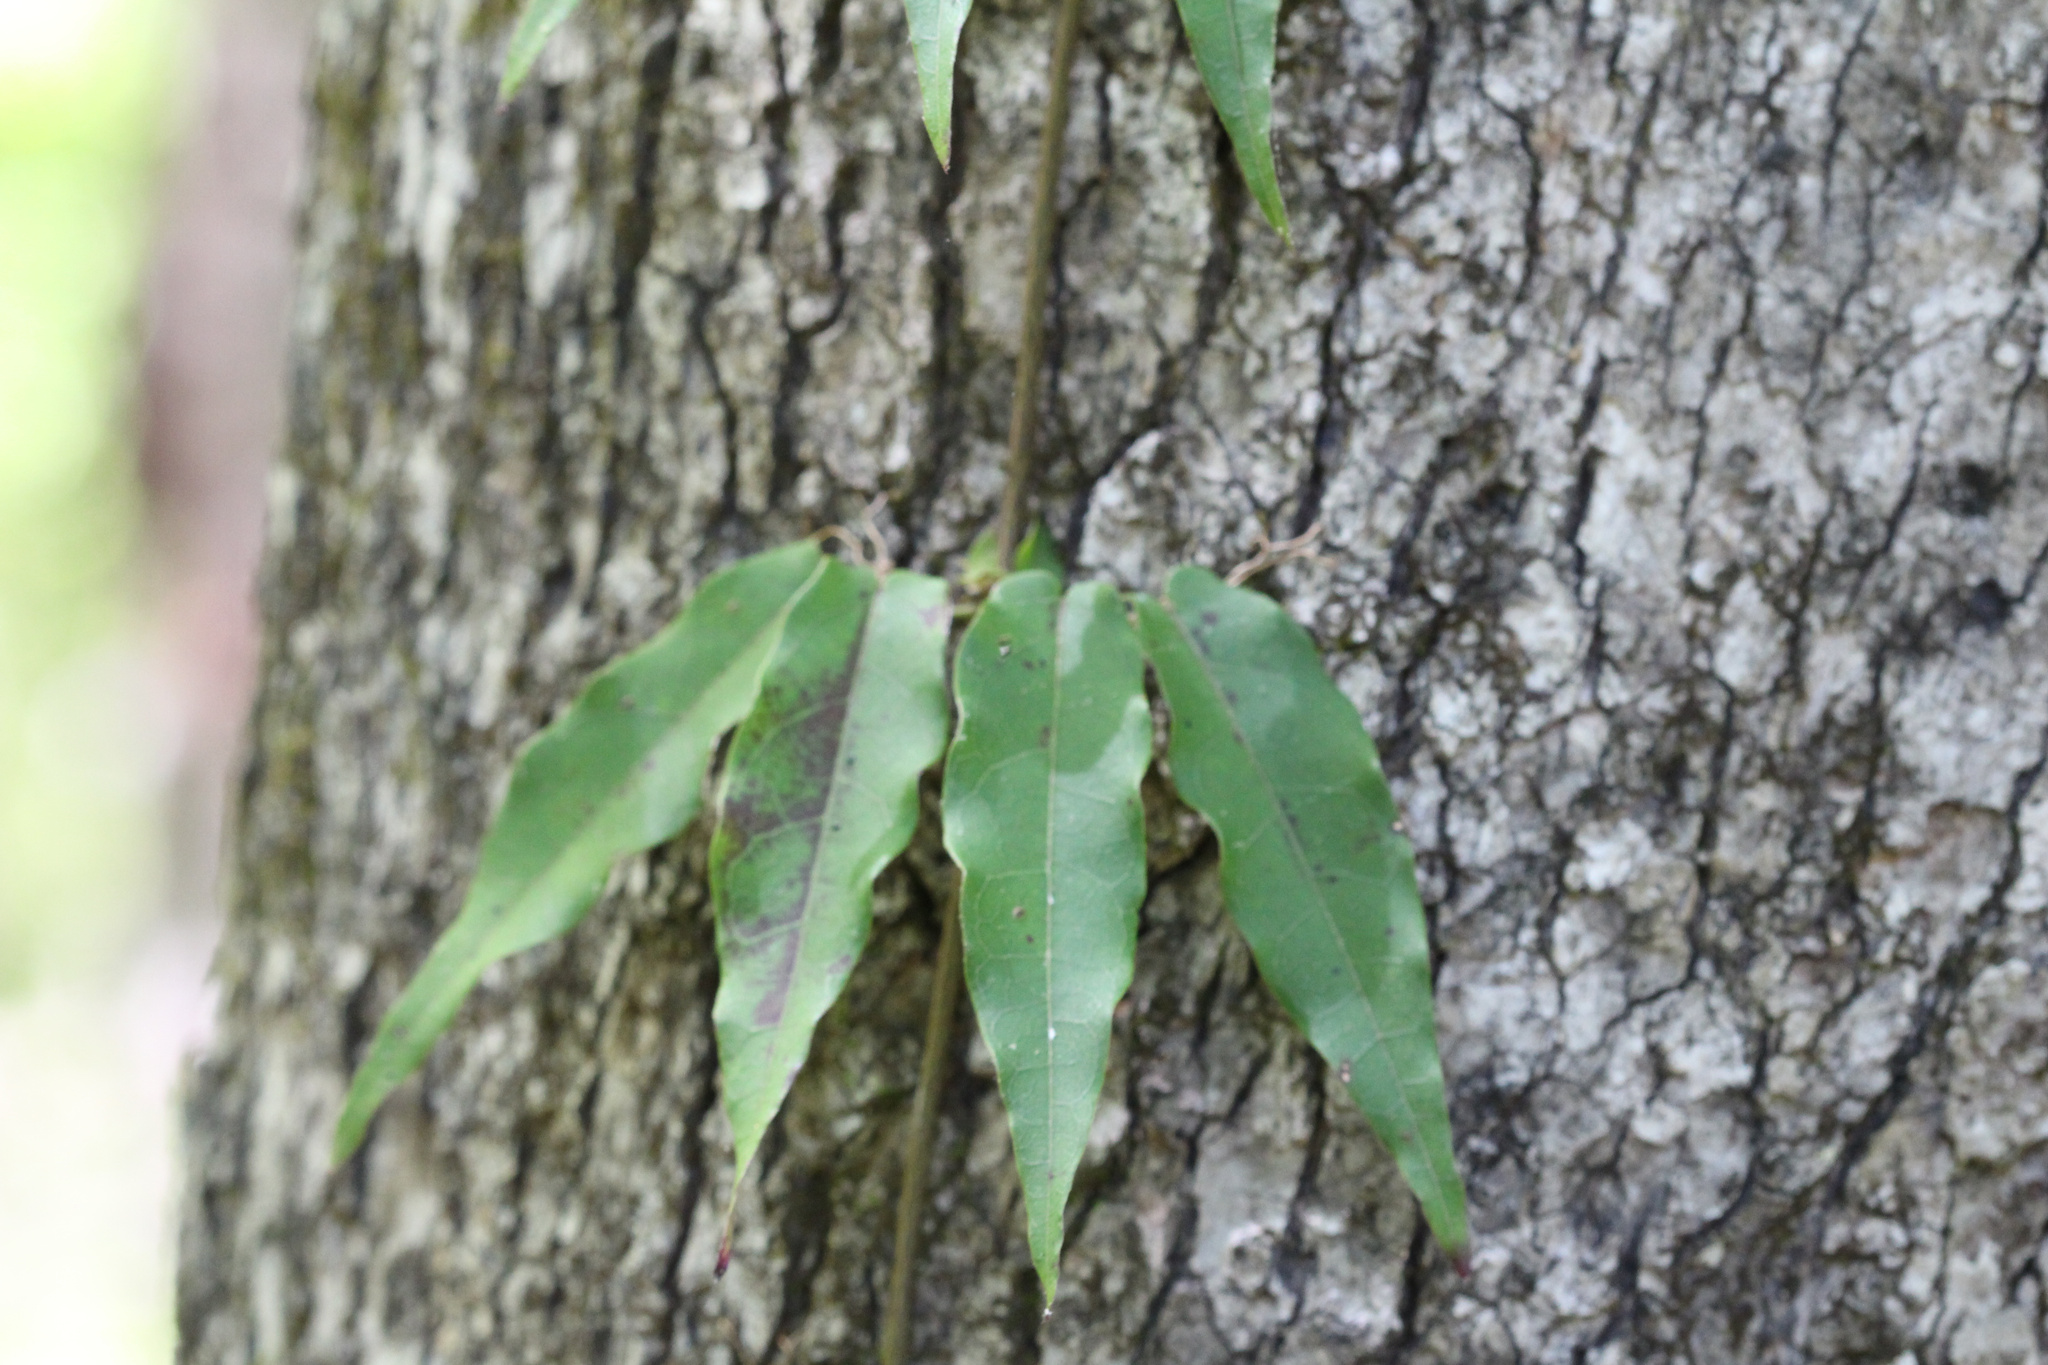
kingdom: Plantae
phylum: Tracheophyta
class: Magnoliopsida
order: Lamiales
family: Bignoniaceae
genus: Bignonia
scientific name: Bignonia capreolata
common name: Crossvine
